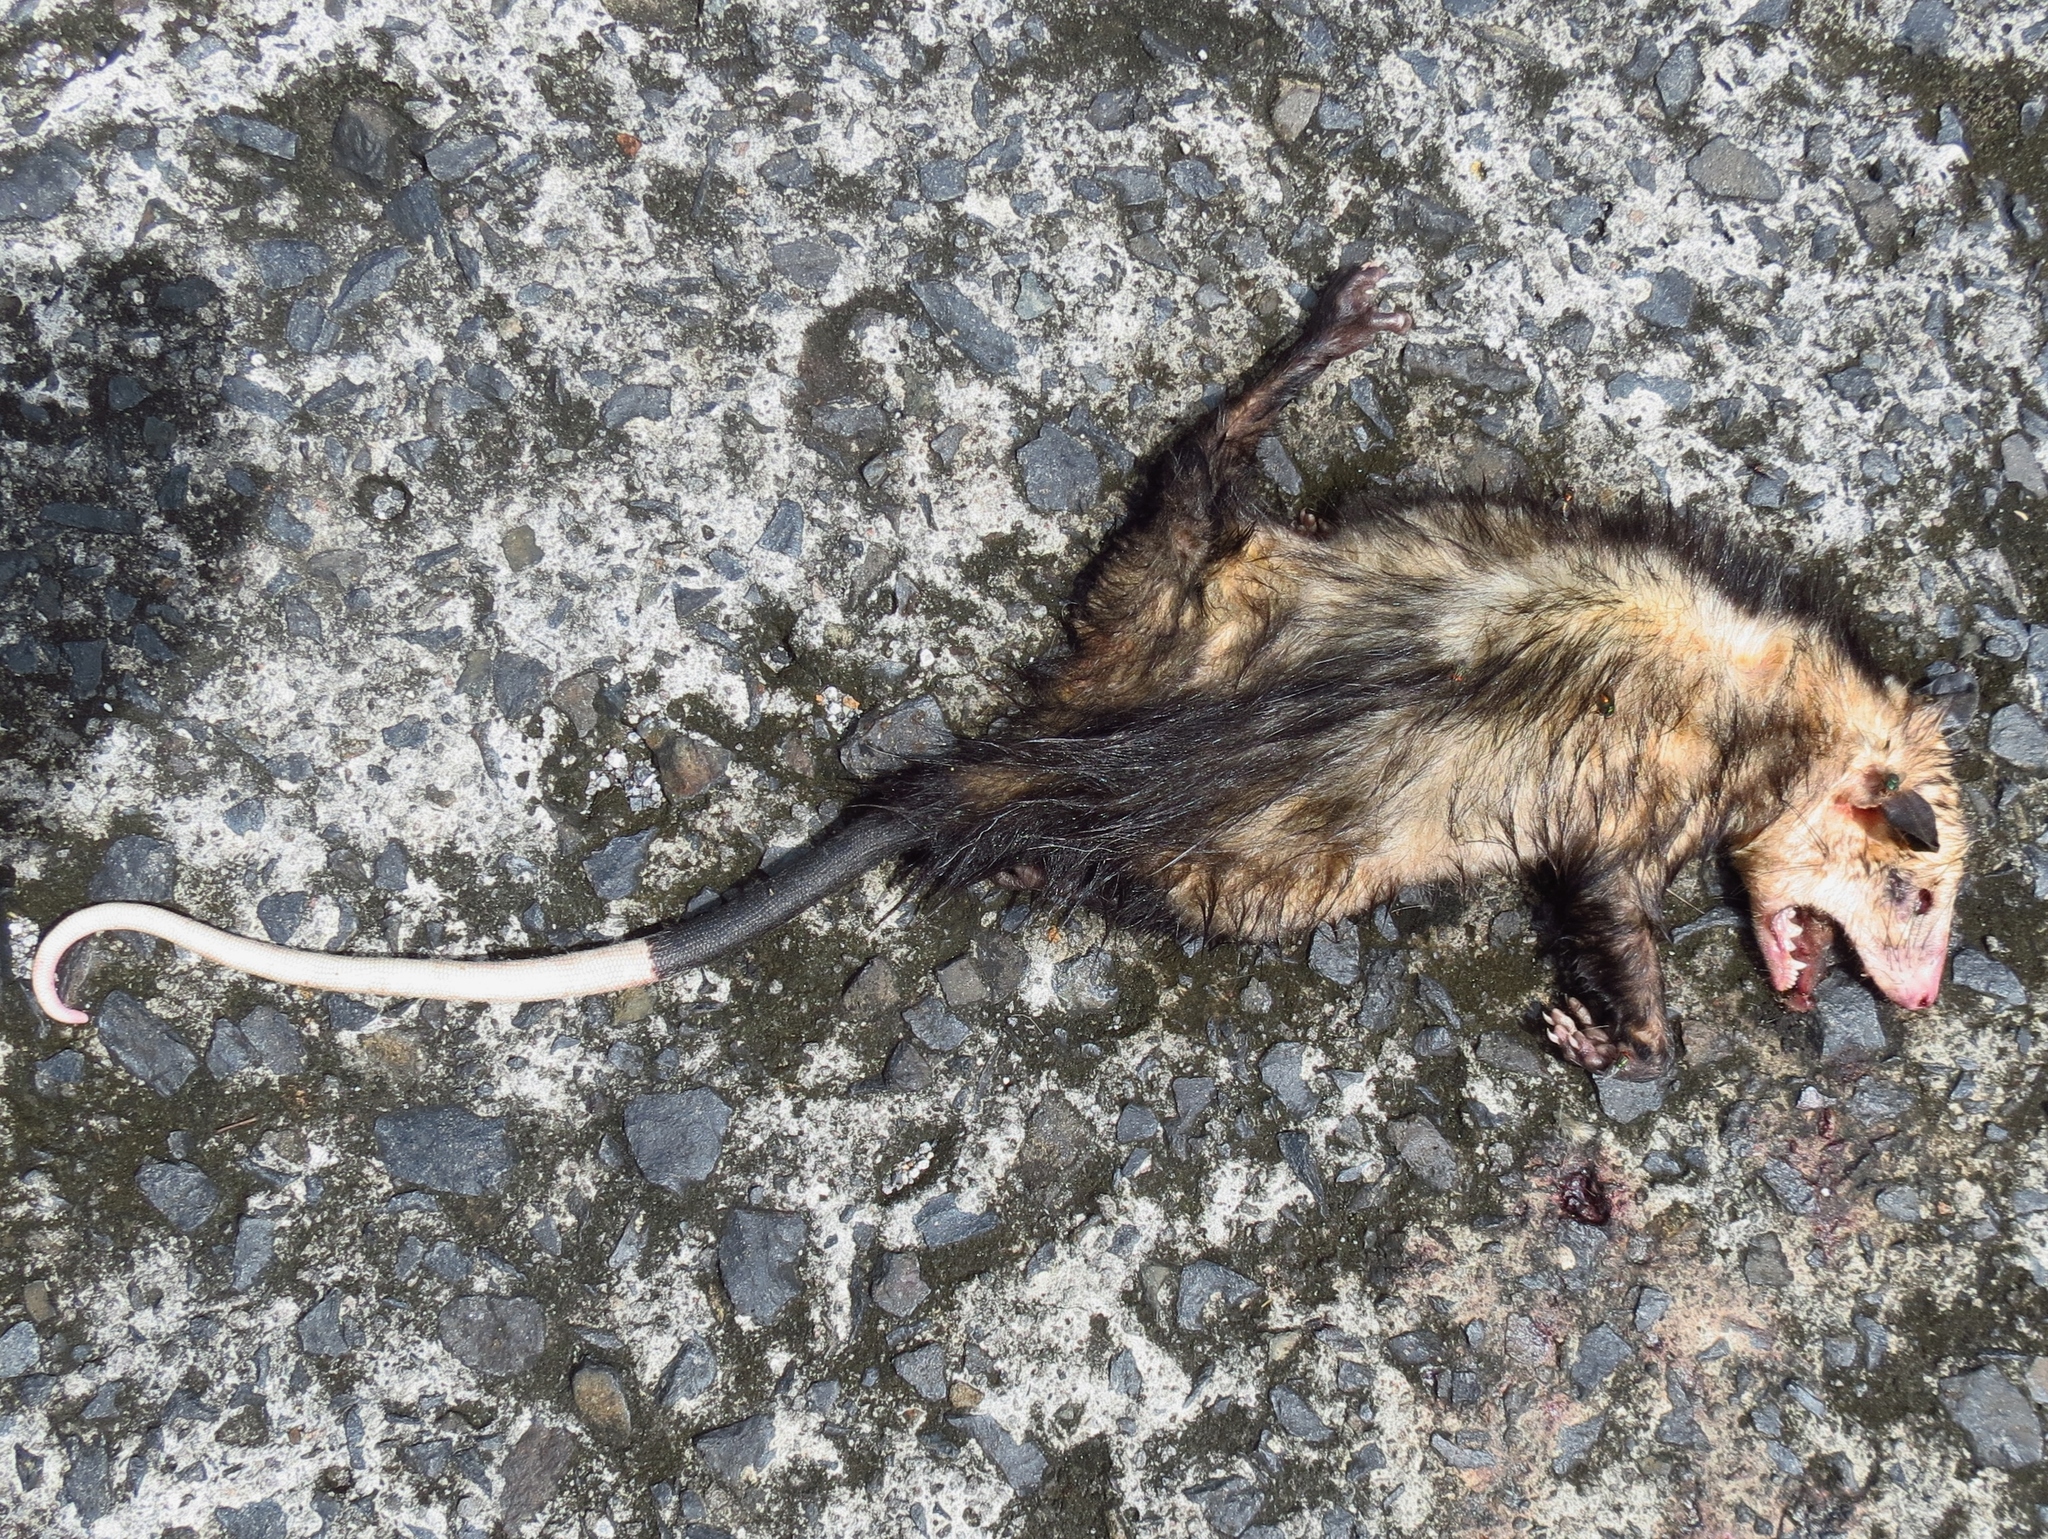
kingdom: Animalia
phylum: Chordata
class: Mammalia
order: Didelphimorphia
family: Didelphidae
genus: Didelphis
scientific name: Didelphis marsupialis
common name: Common opossum
